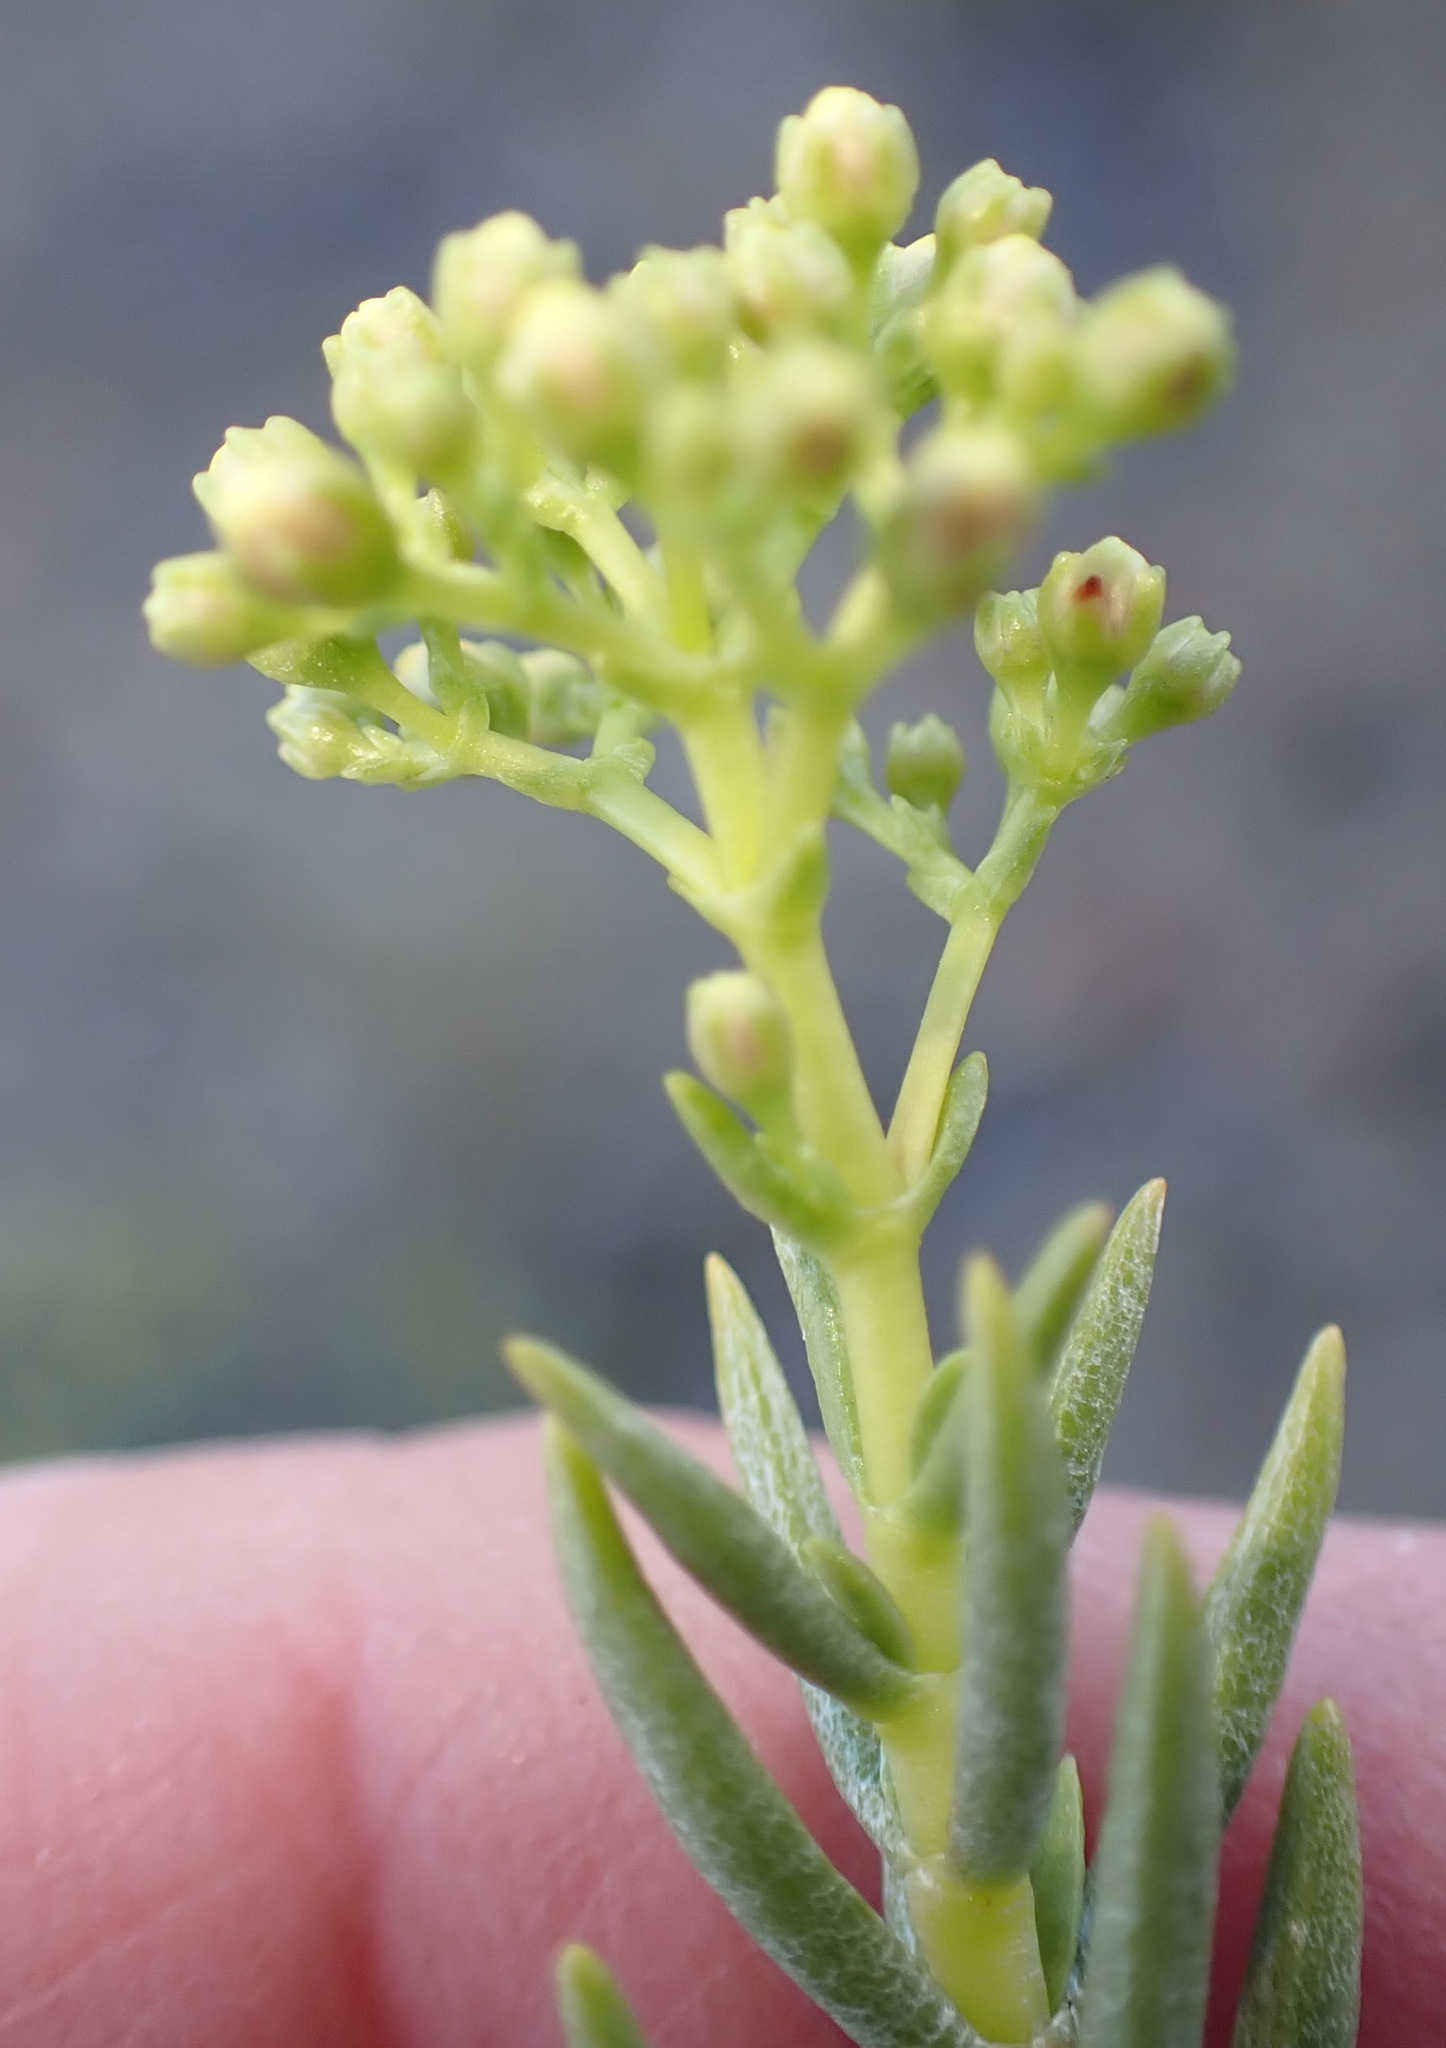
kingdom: Plantae
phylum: Tracheophyta
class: Magnoliopsida
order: Saxifragales
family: Crassulaceae
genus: Crassula
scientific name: Crassula tetragona
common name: Pygmyweed
